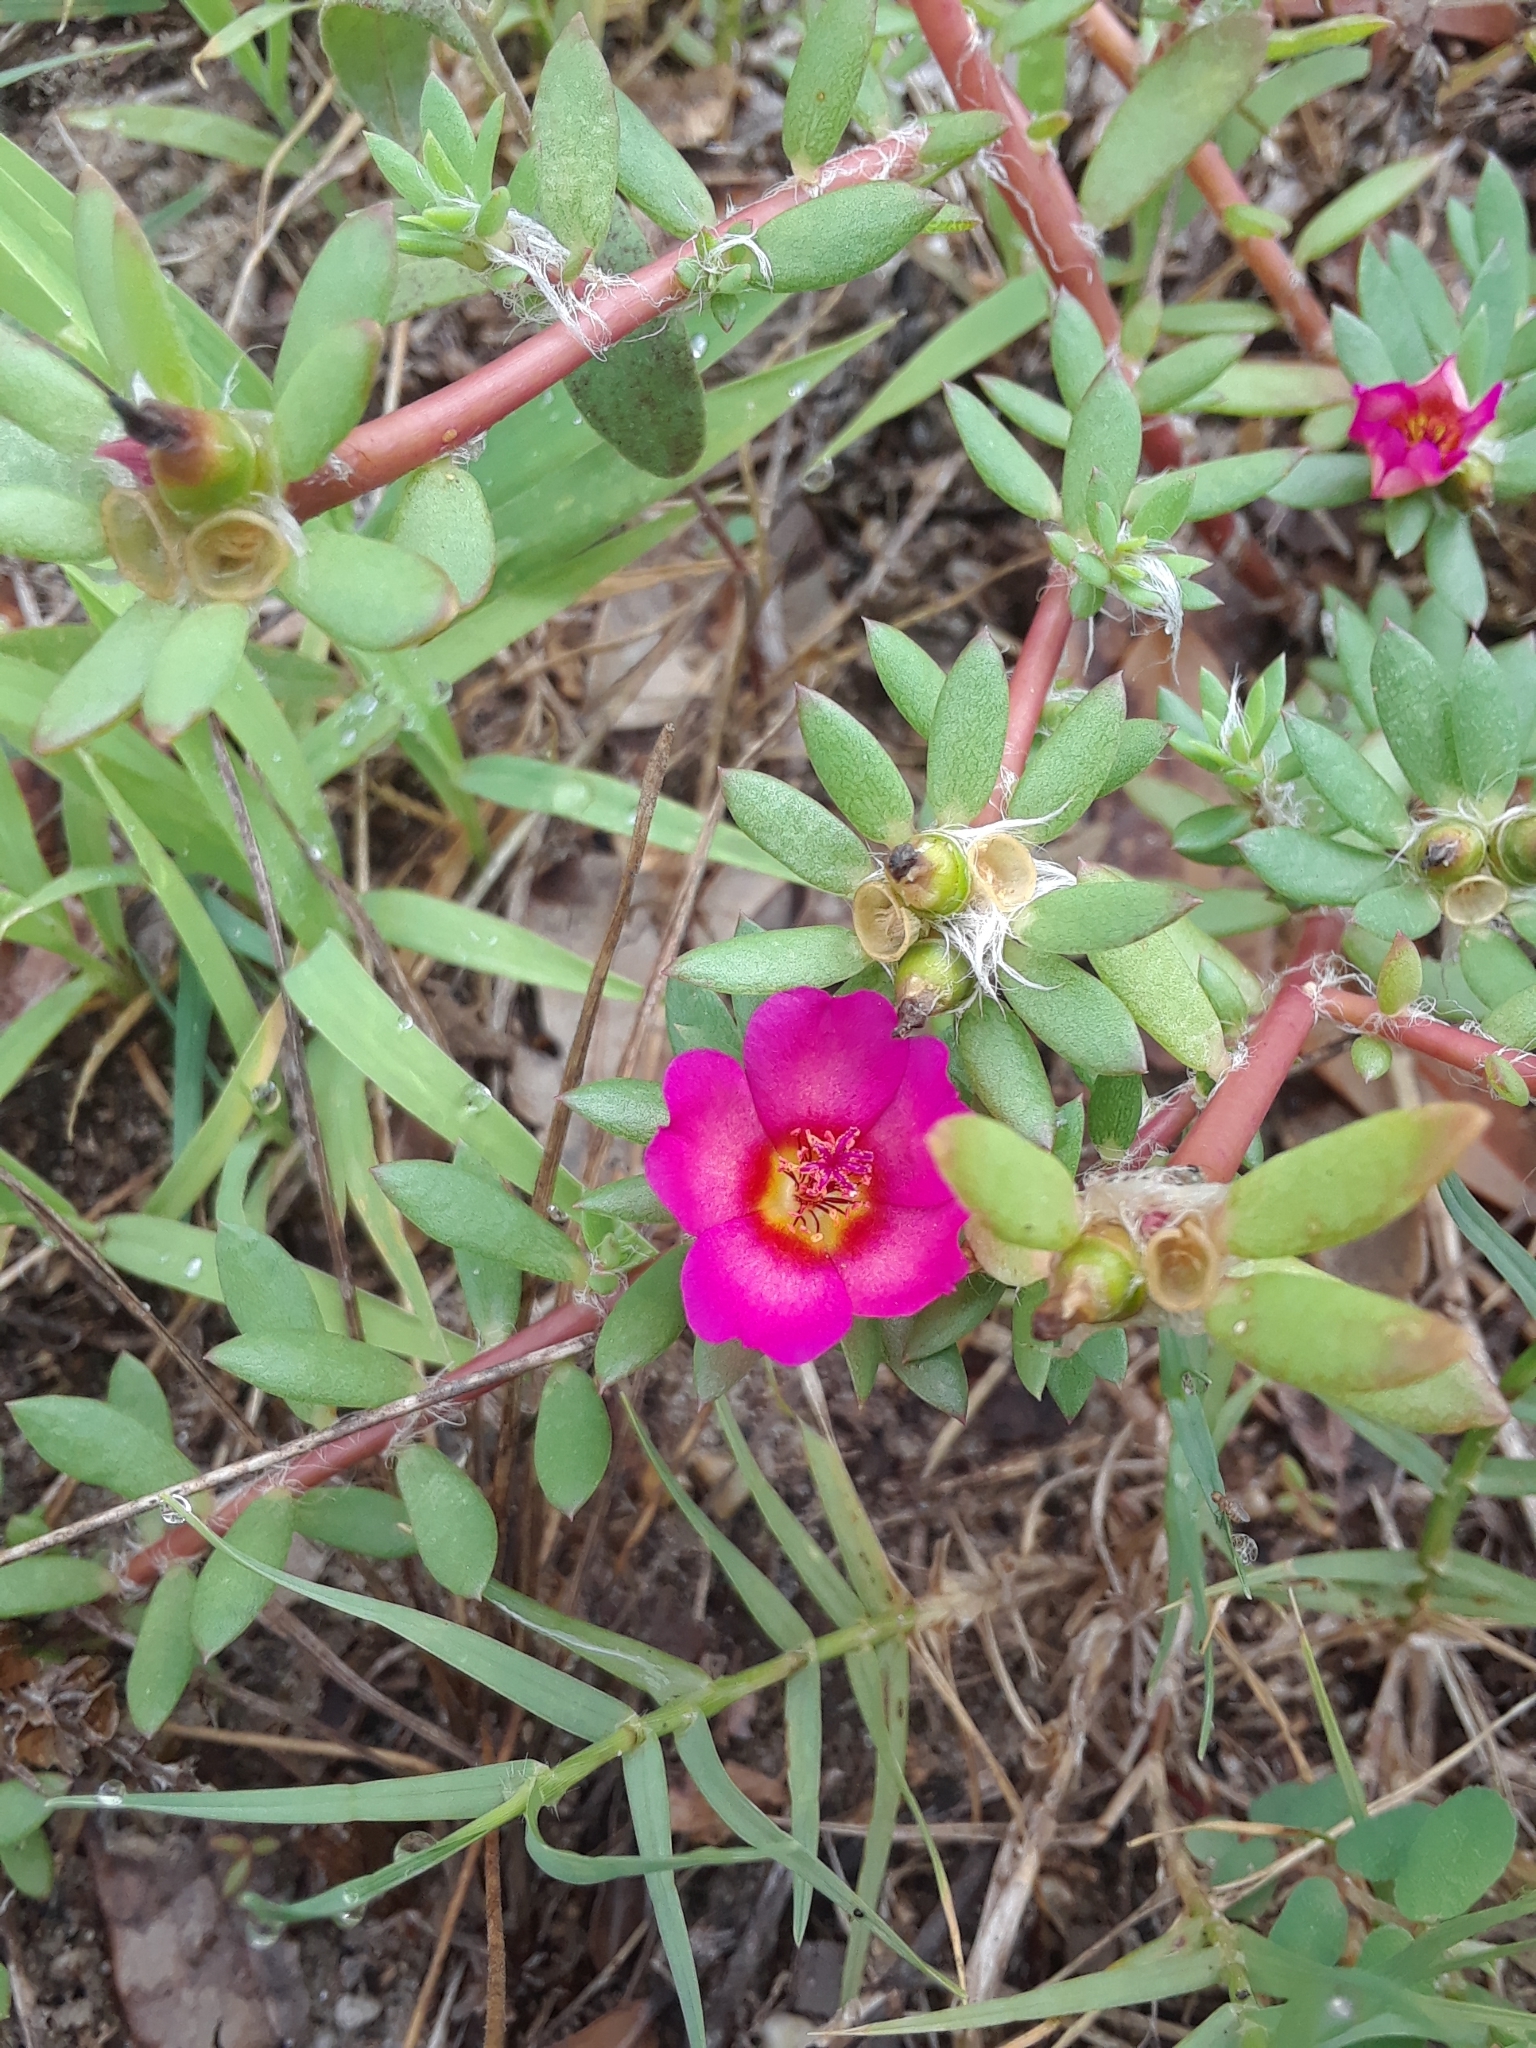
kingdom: Plantae
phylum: Tracheophyta
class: Magnoliopsida
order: Caryophyllales
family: Portulacaceae
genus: Portulaca
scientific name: Portulaca amilis
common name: Paraguayan purslane
